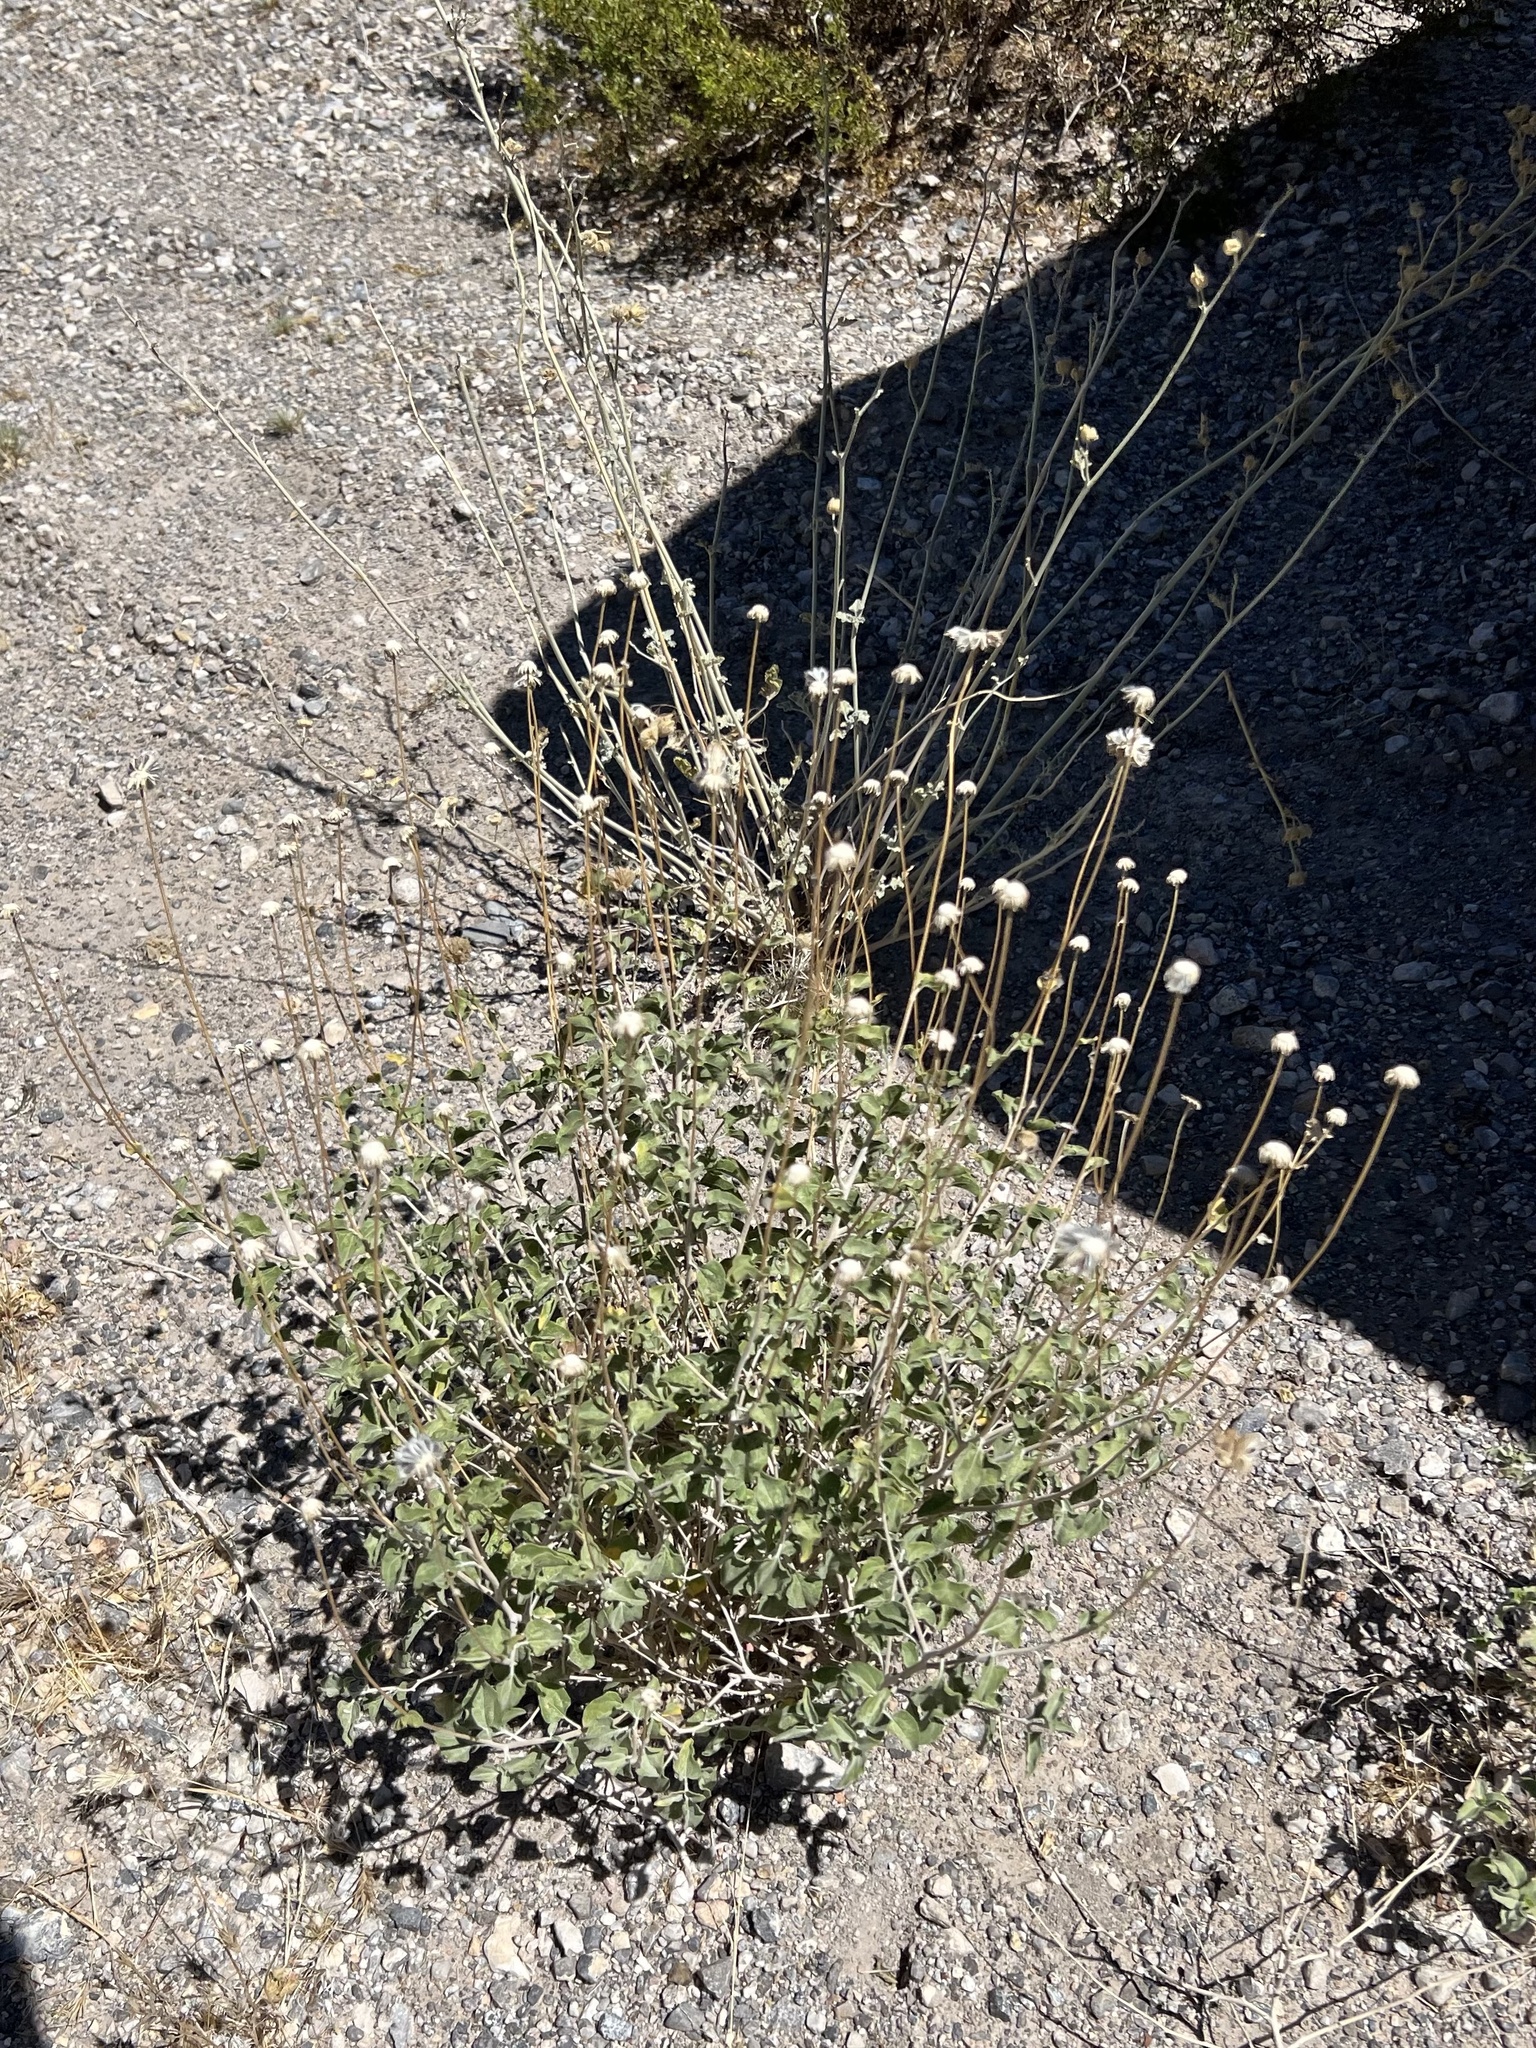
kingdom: Plantae
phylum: Tracheophyta
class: Magnoliopsida
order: Asterales
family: Asteraceae
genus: Encelia
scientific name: Encelia virginensis
